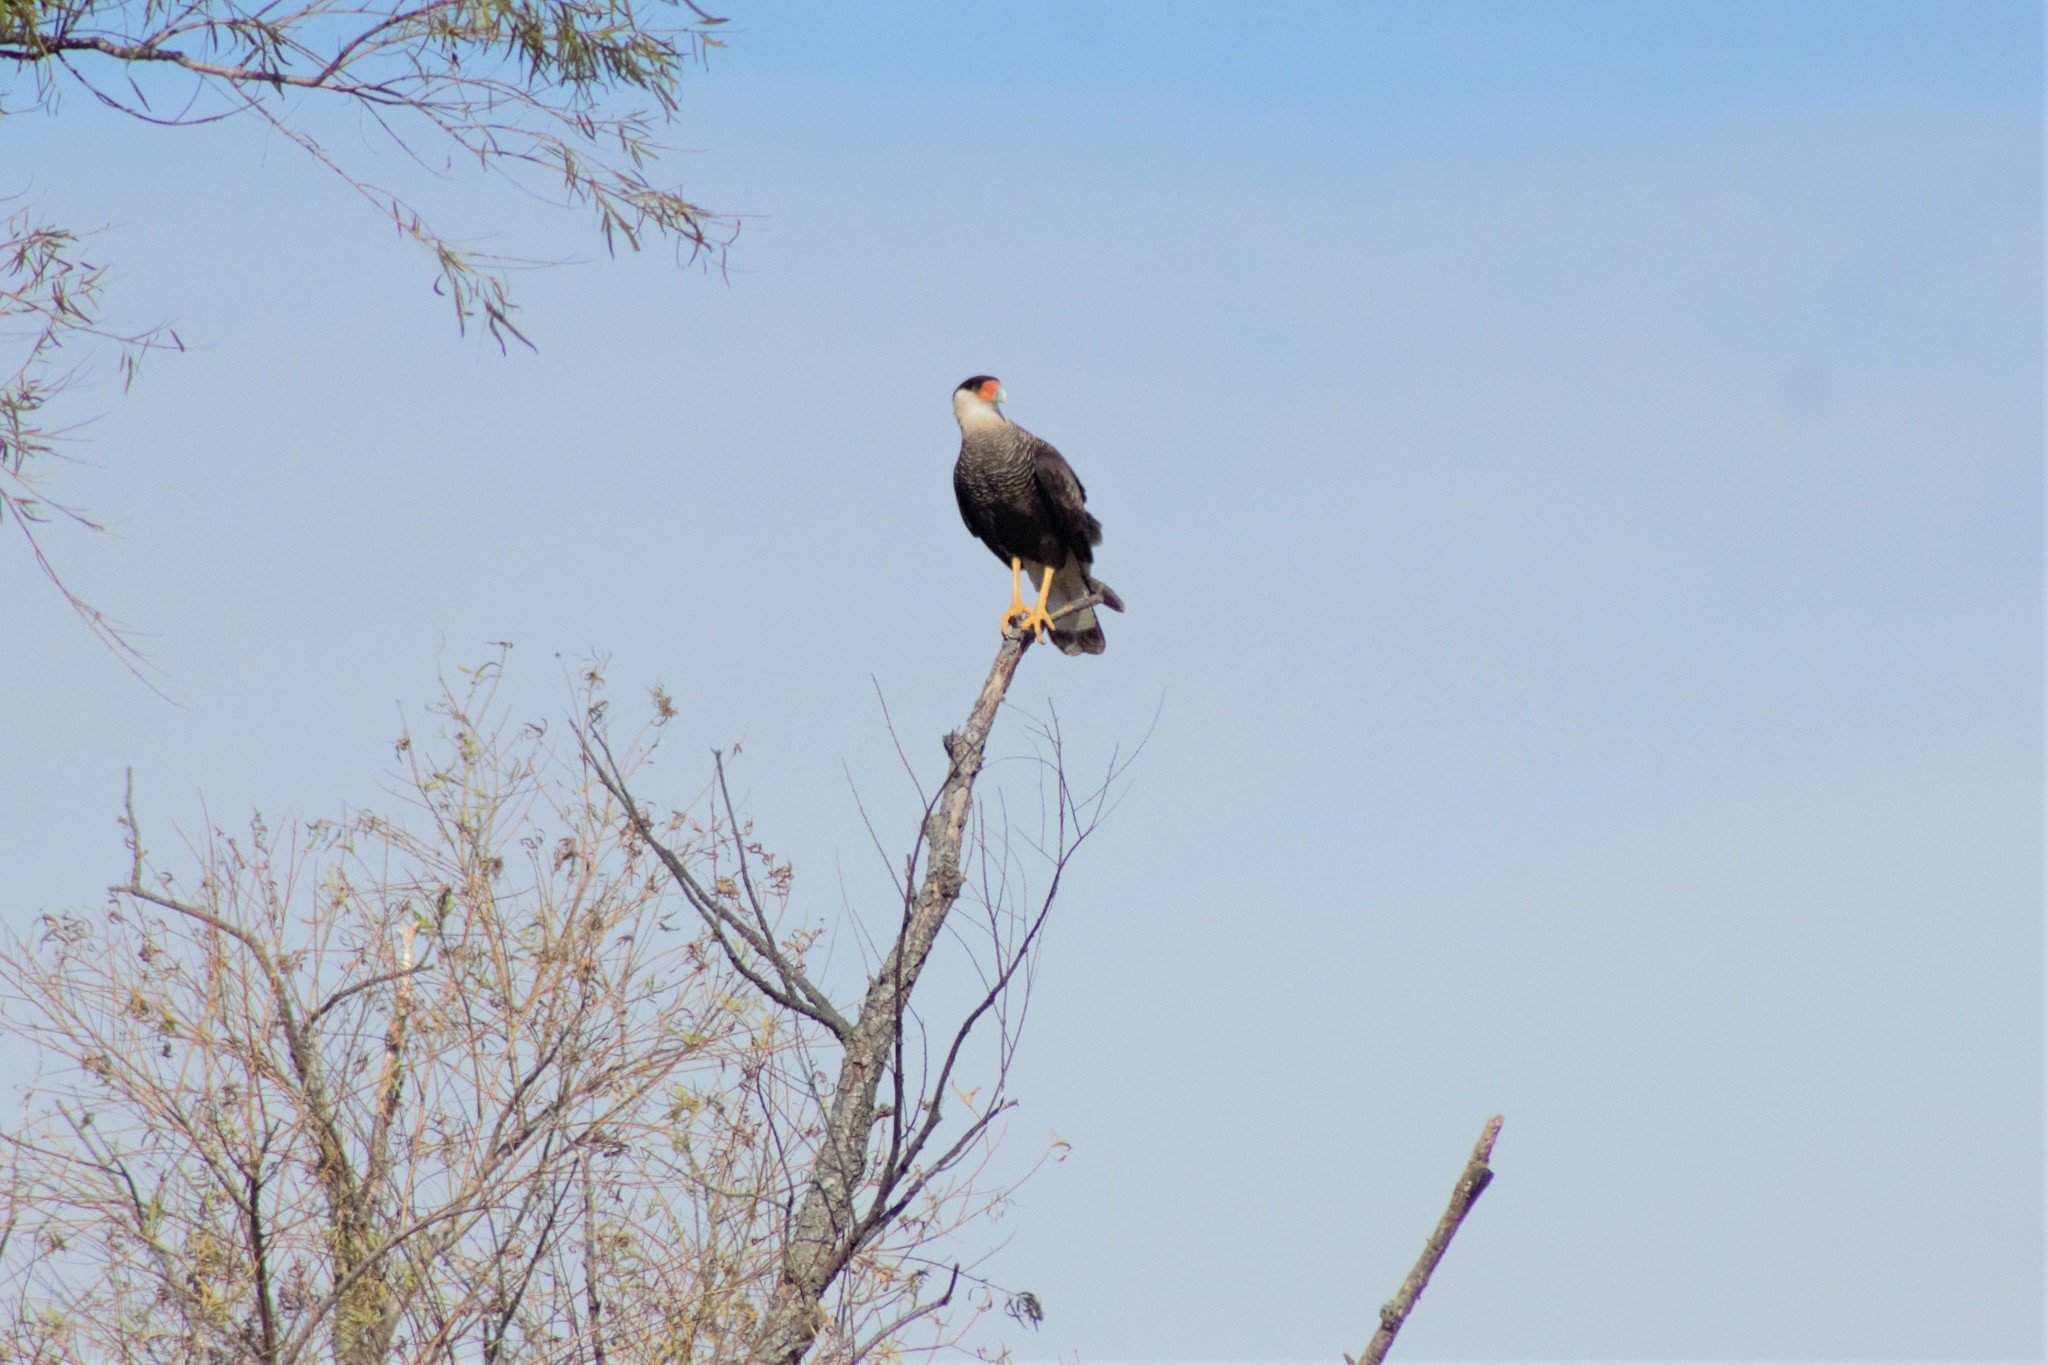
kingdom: Animalia
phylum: Chordata
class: Aves
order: Falconiformes
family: Falconidae
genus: Caracara
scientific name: Caracara plancus
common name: Southern caracara
